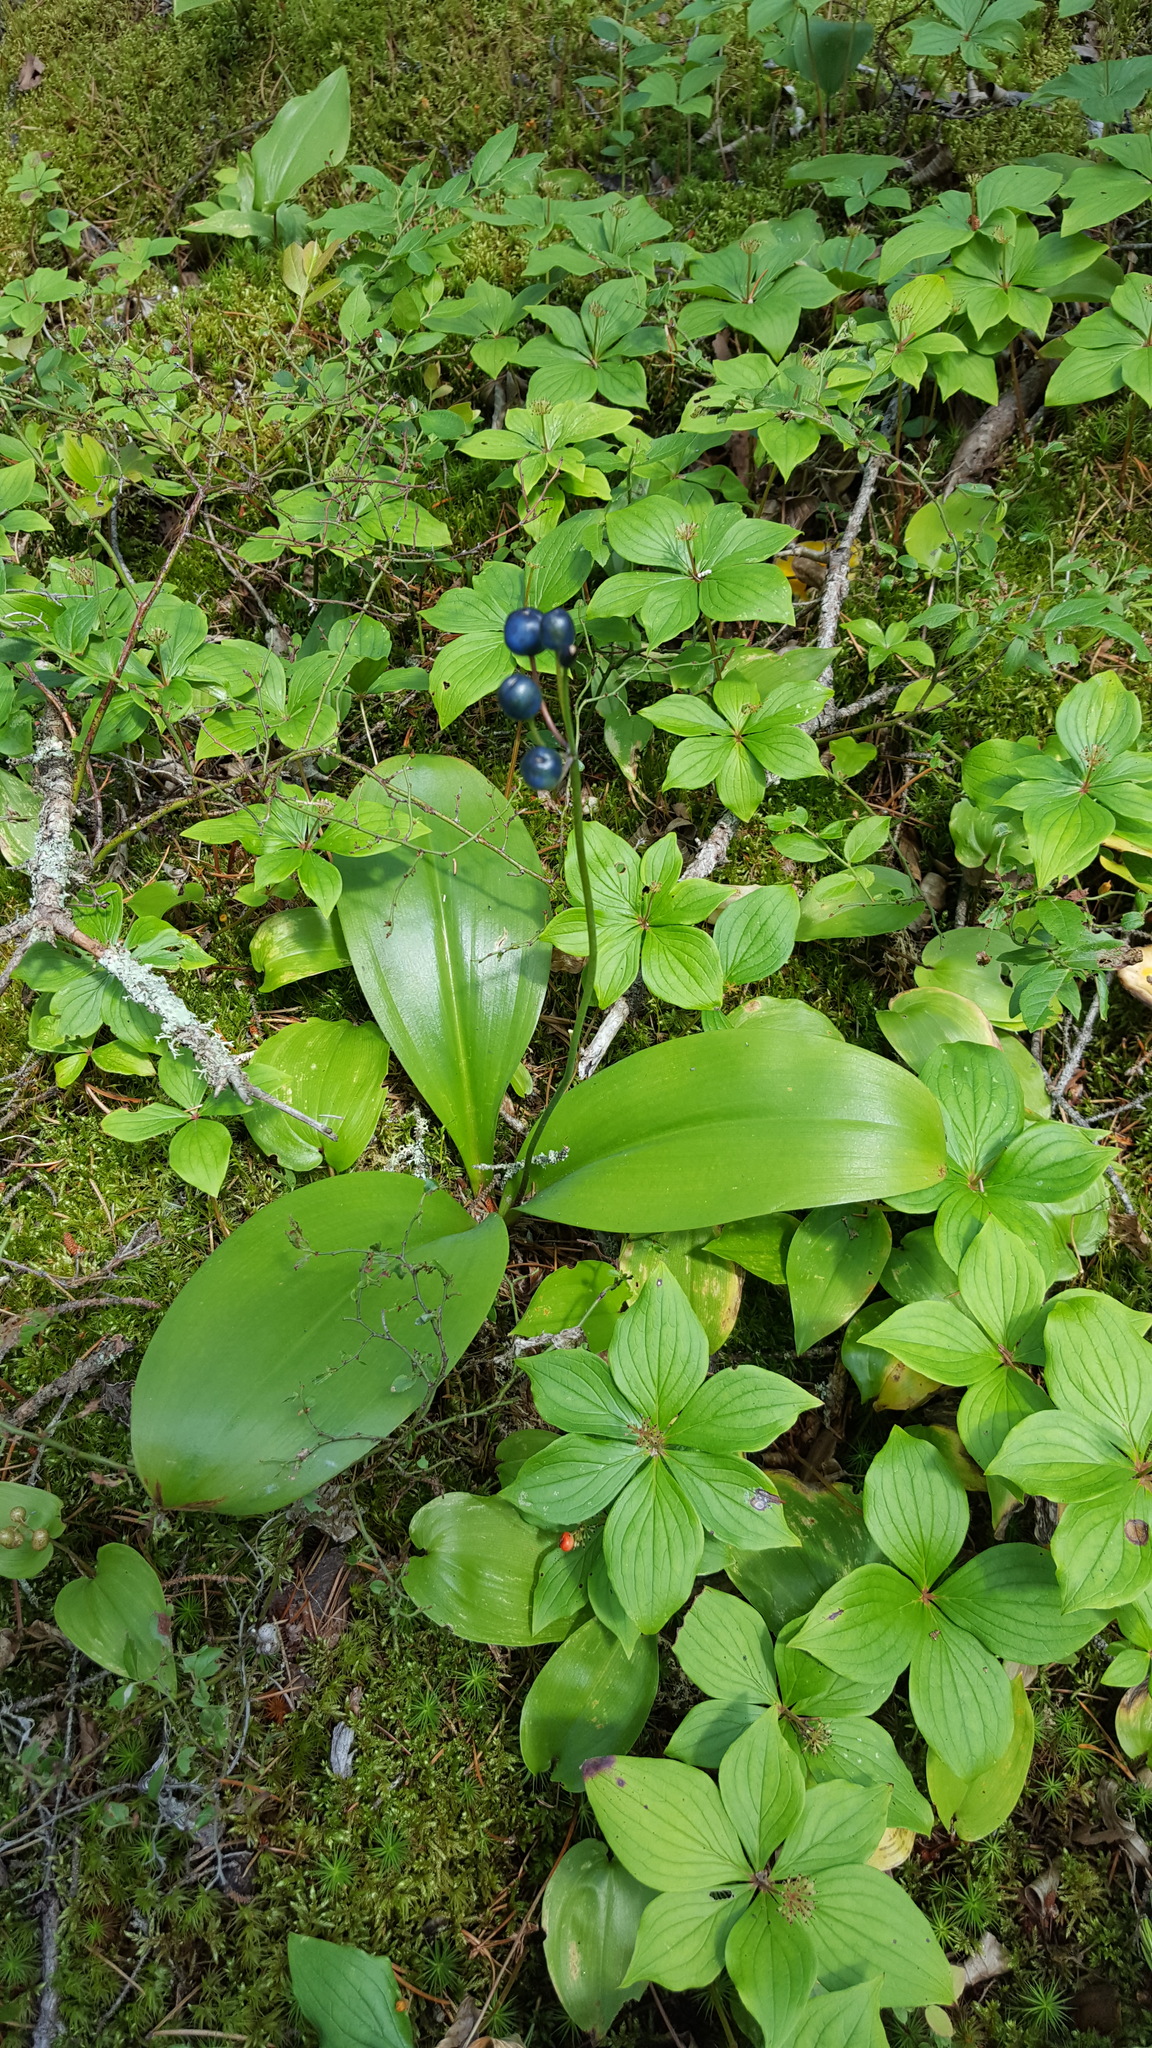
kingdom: Plantae
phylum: Tracheophyta
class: Liliopsida
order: Liliales
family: Liliaceae
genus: Clintonia
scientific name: Clintonia borealis
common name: Yellow clintonia
